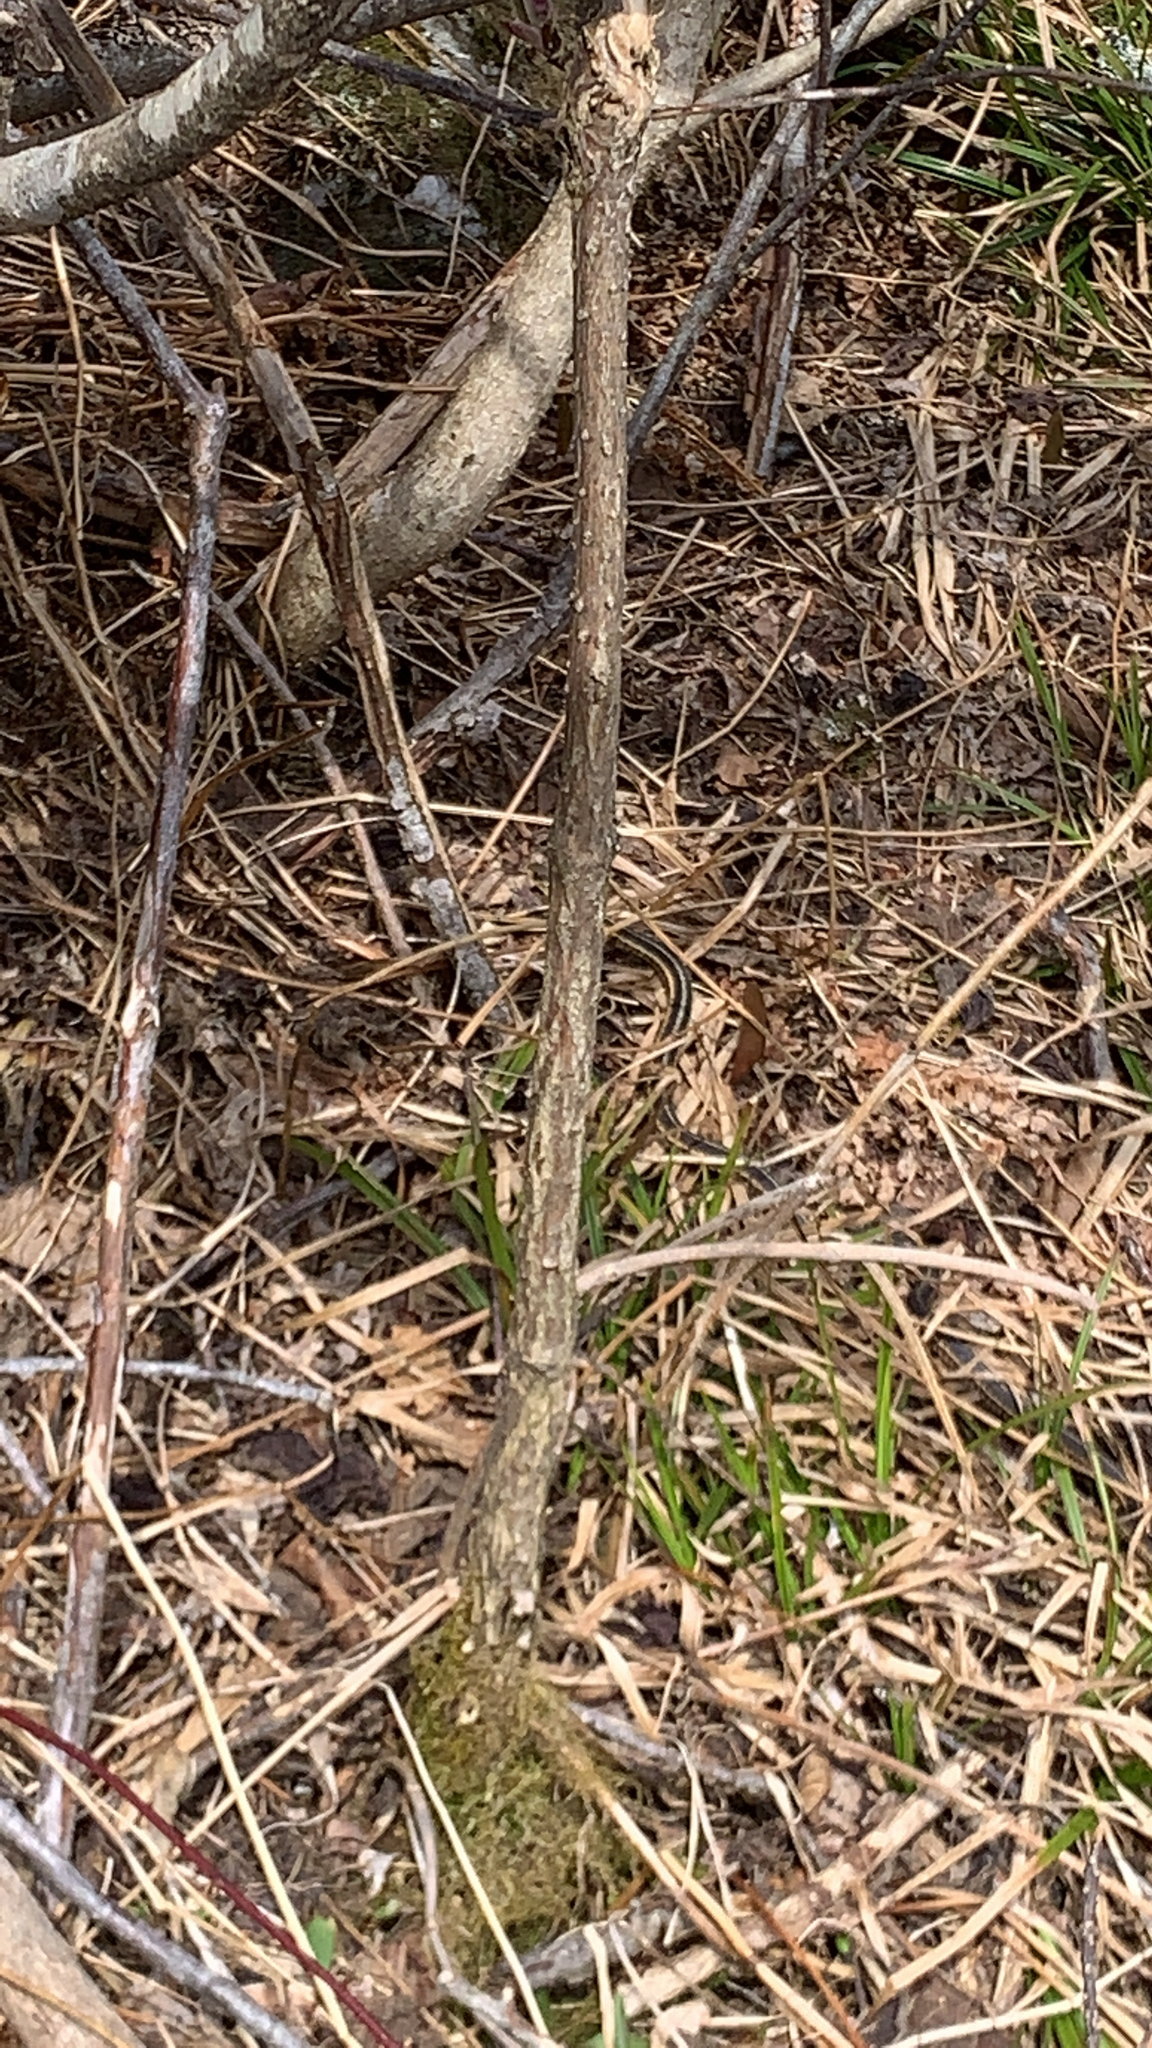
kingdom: Animalia
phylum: Chordata
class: Squamata
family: Colubridae
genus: Thamnophis
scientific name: Thamnophis sirtalis
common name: Common garter snake
